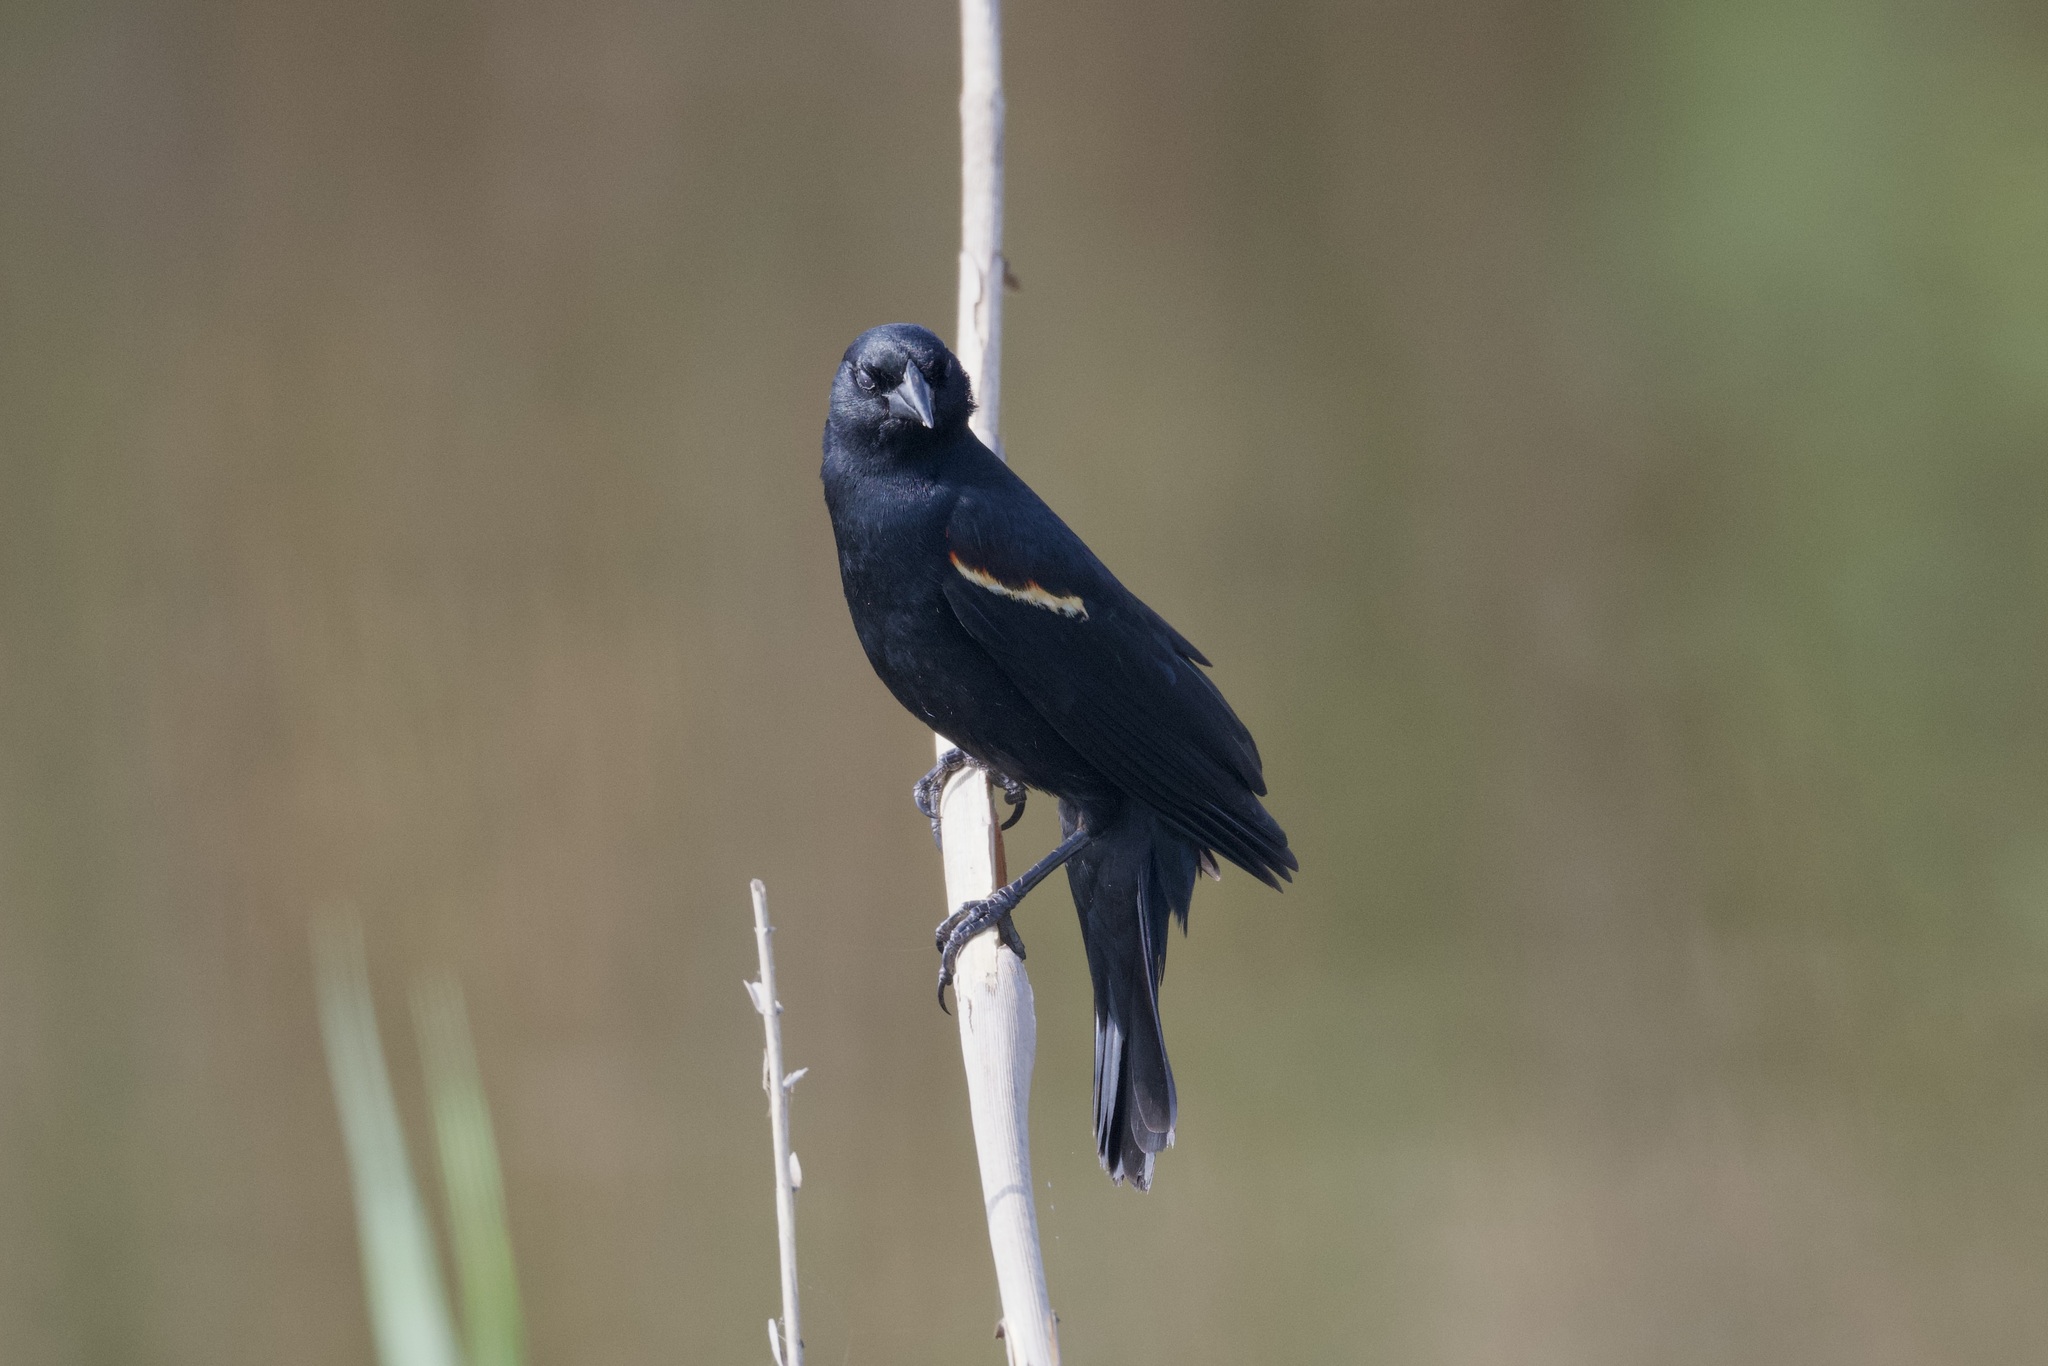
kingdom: Animalia
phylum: Chordata
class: Aves
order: Passeriformes
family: Icteridae
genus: Agelaius
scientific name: Agelaius phoeniceus
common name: Red-winged blackbird
